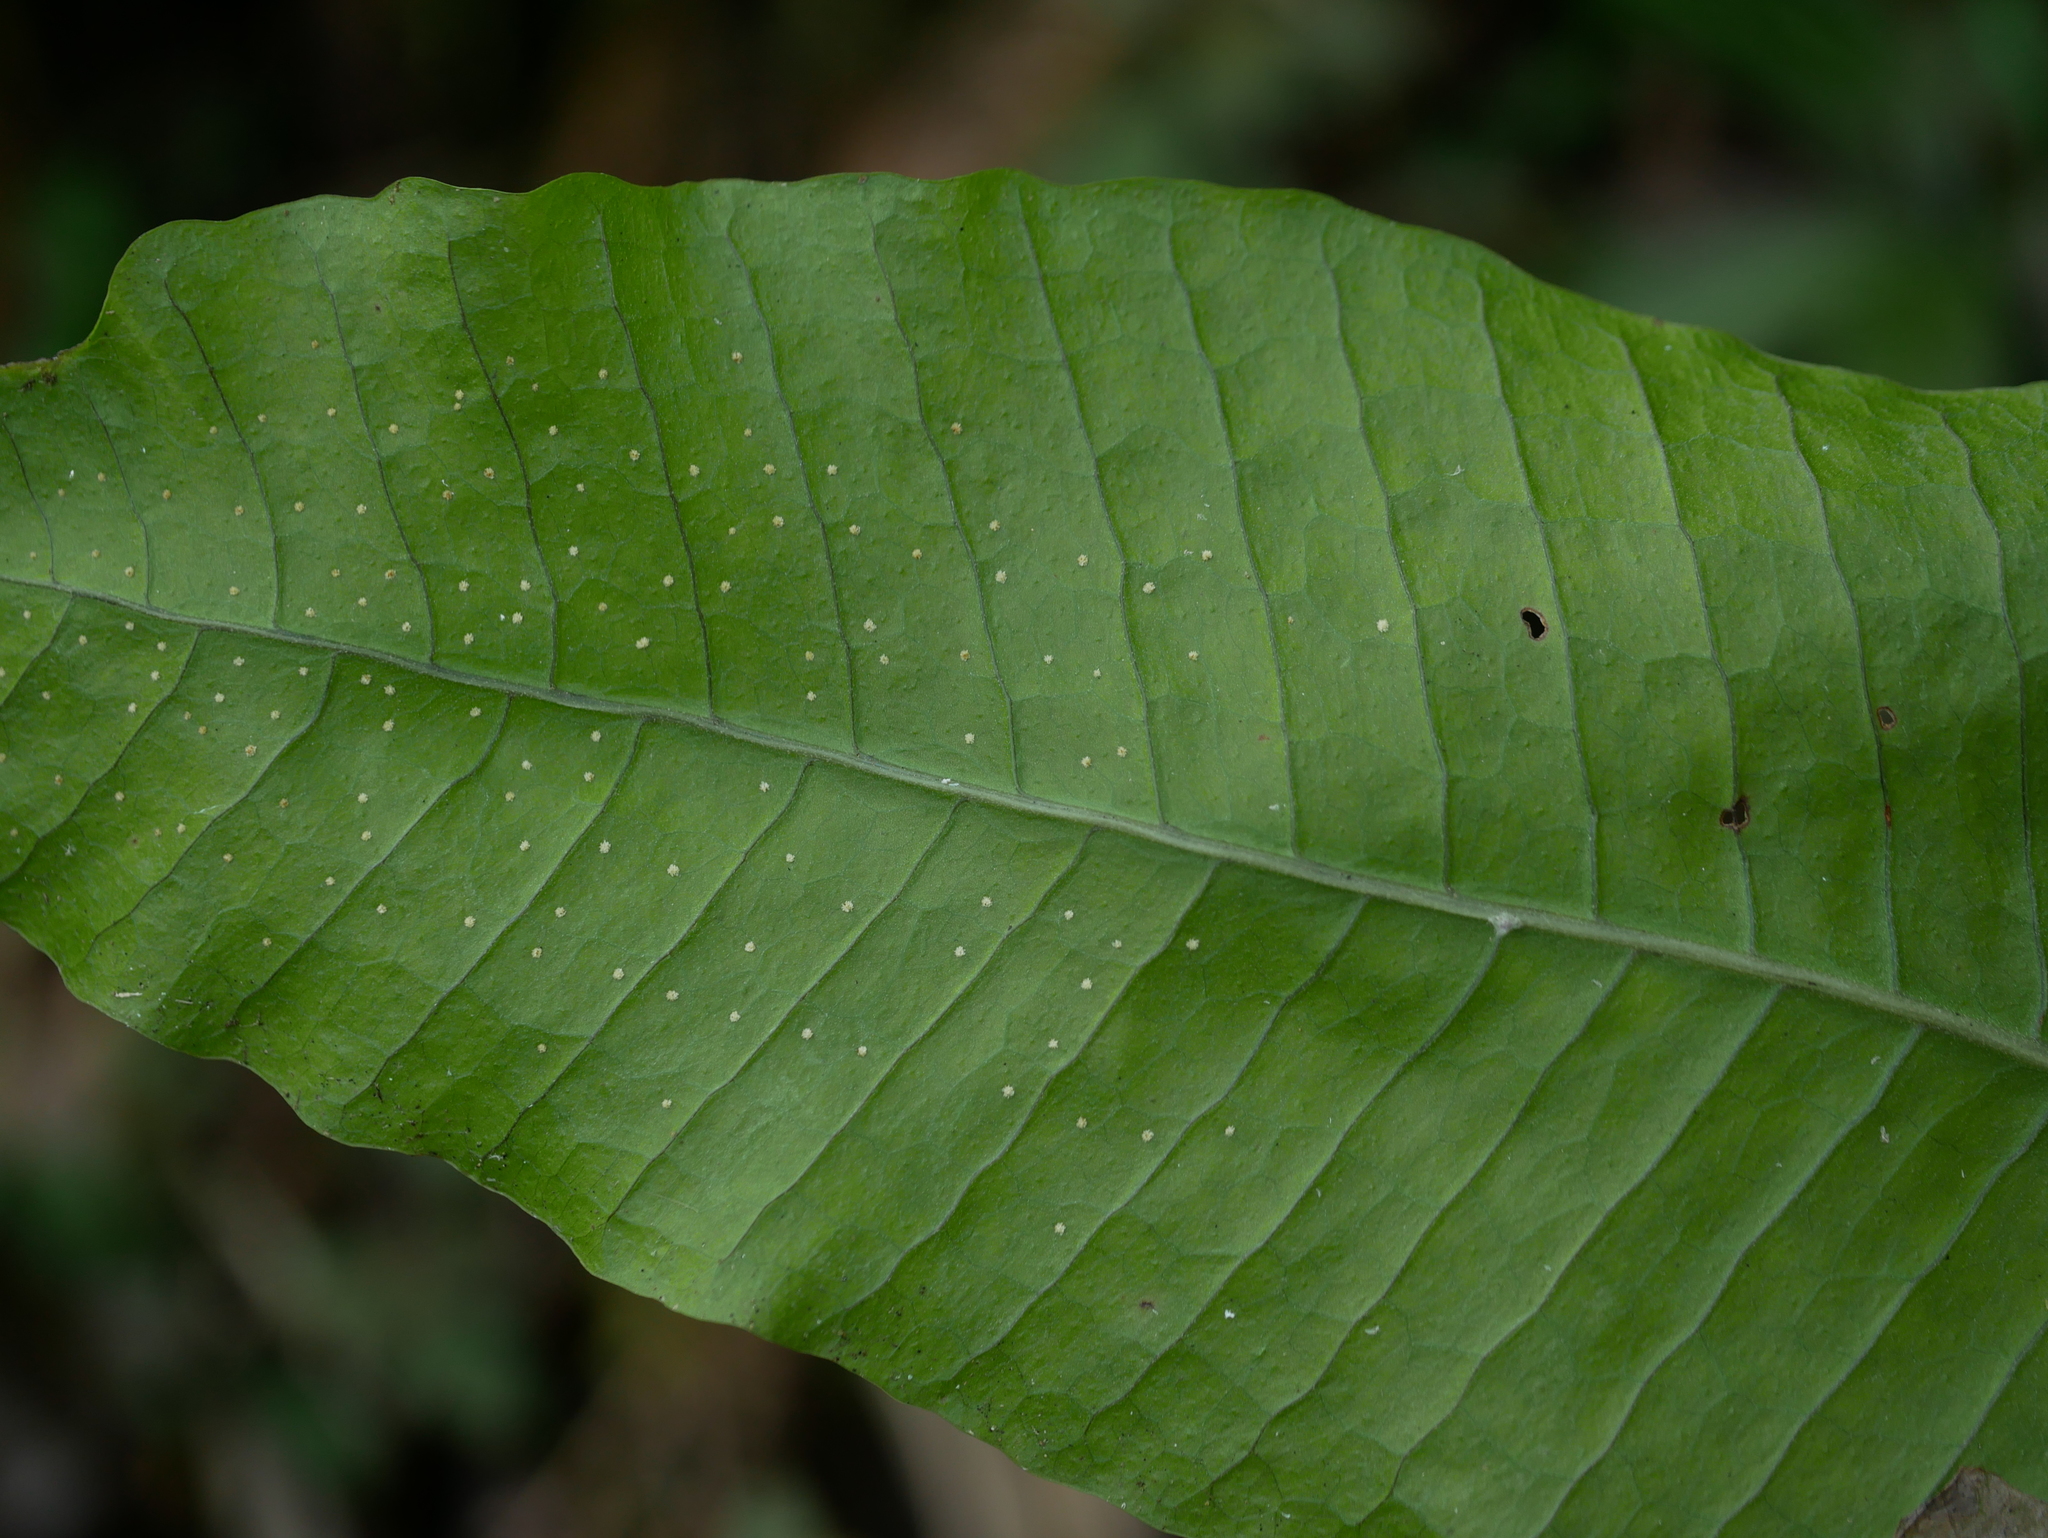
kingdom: Plantae
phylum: Tracheophyta
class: Polypodiopsida
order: Polypodiales
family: Polypodiaceae
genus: Bosmania
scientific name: Bosmania membranacea
